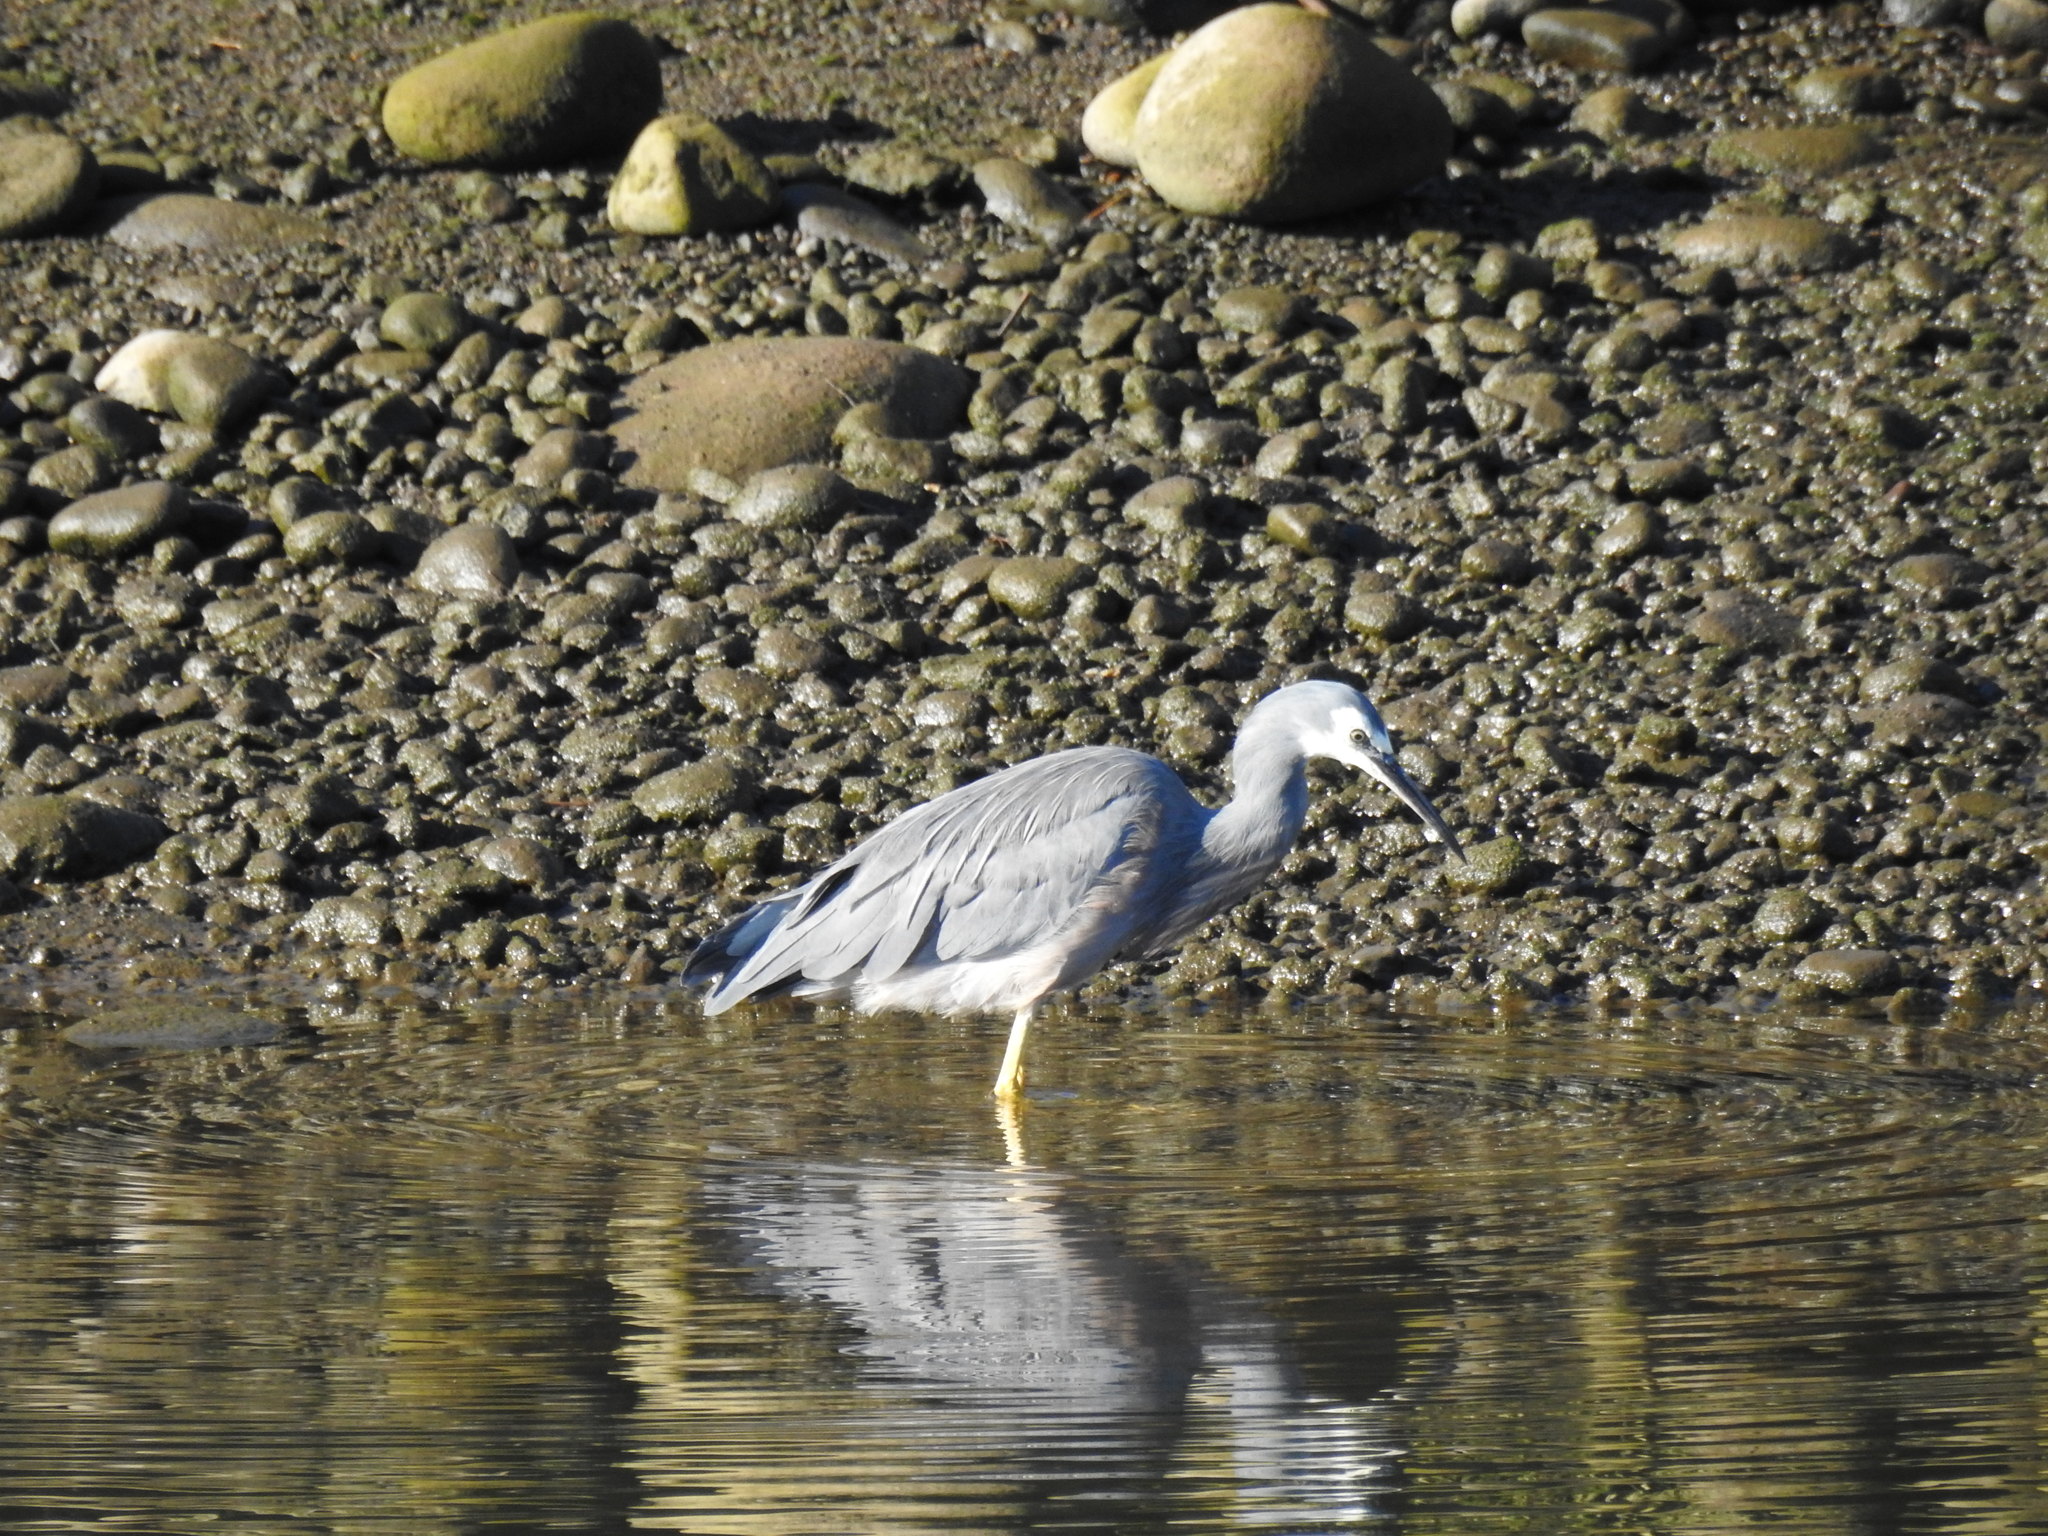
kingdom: Animalia
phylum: Chordata
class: Aves
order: Pelecaniformes
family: Ardeidae
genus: Egretta
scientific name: Egretta novaehollandiae
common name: White-faced heron
